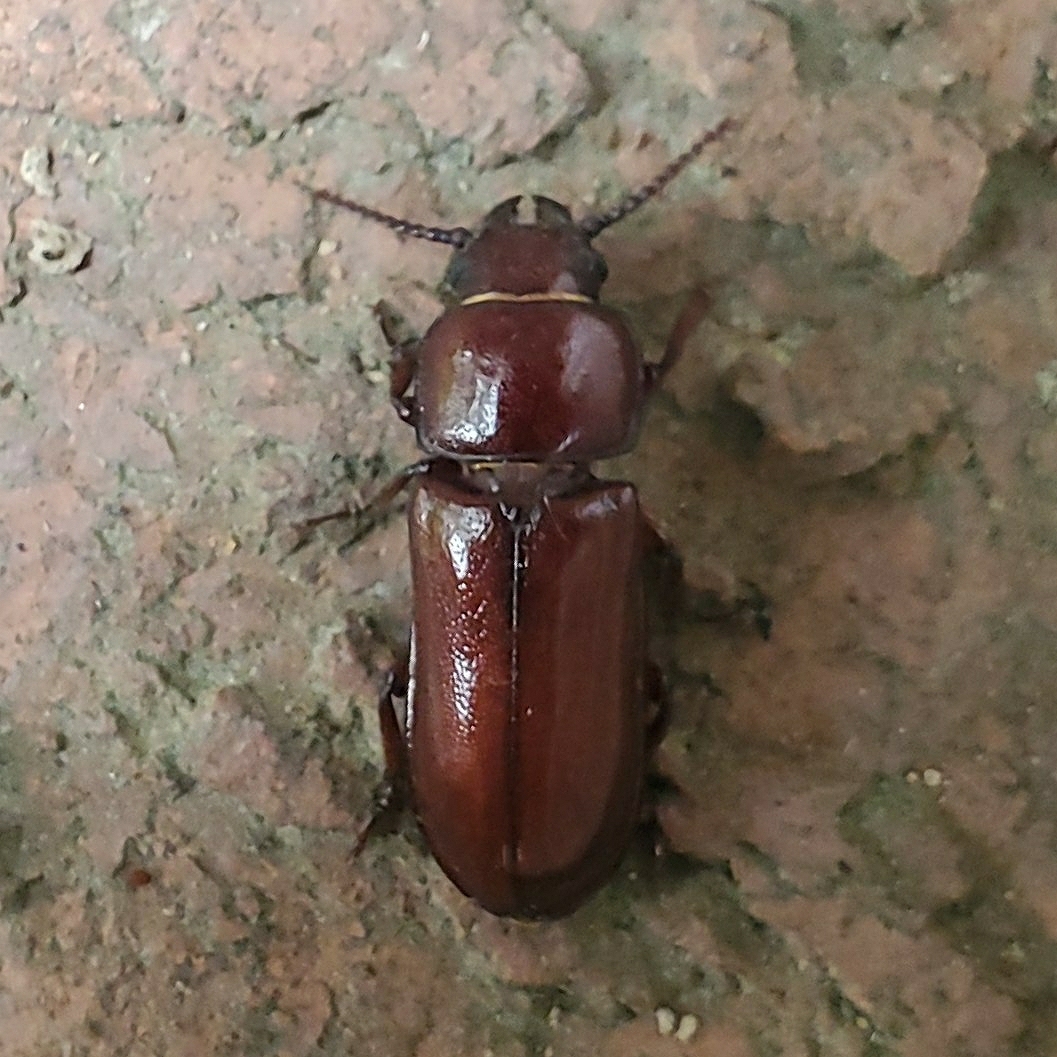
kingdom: Animalia
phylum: Arthropoda
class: Insecta
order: Coleoptera
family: Cerambycidae
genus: Neandra
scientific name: Neandra brunnea
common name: Pole borer
